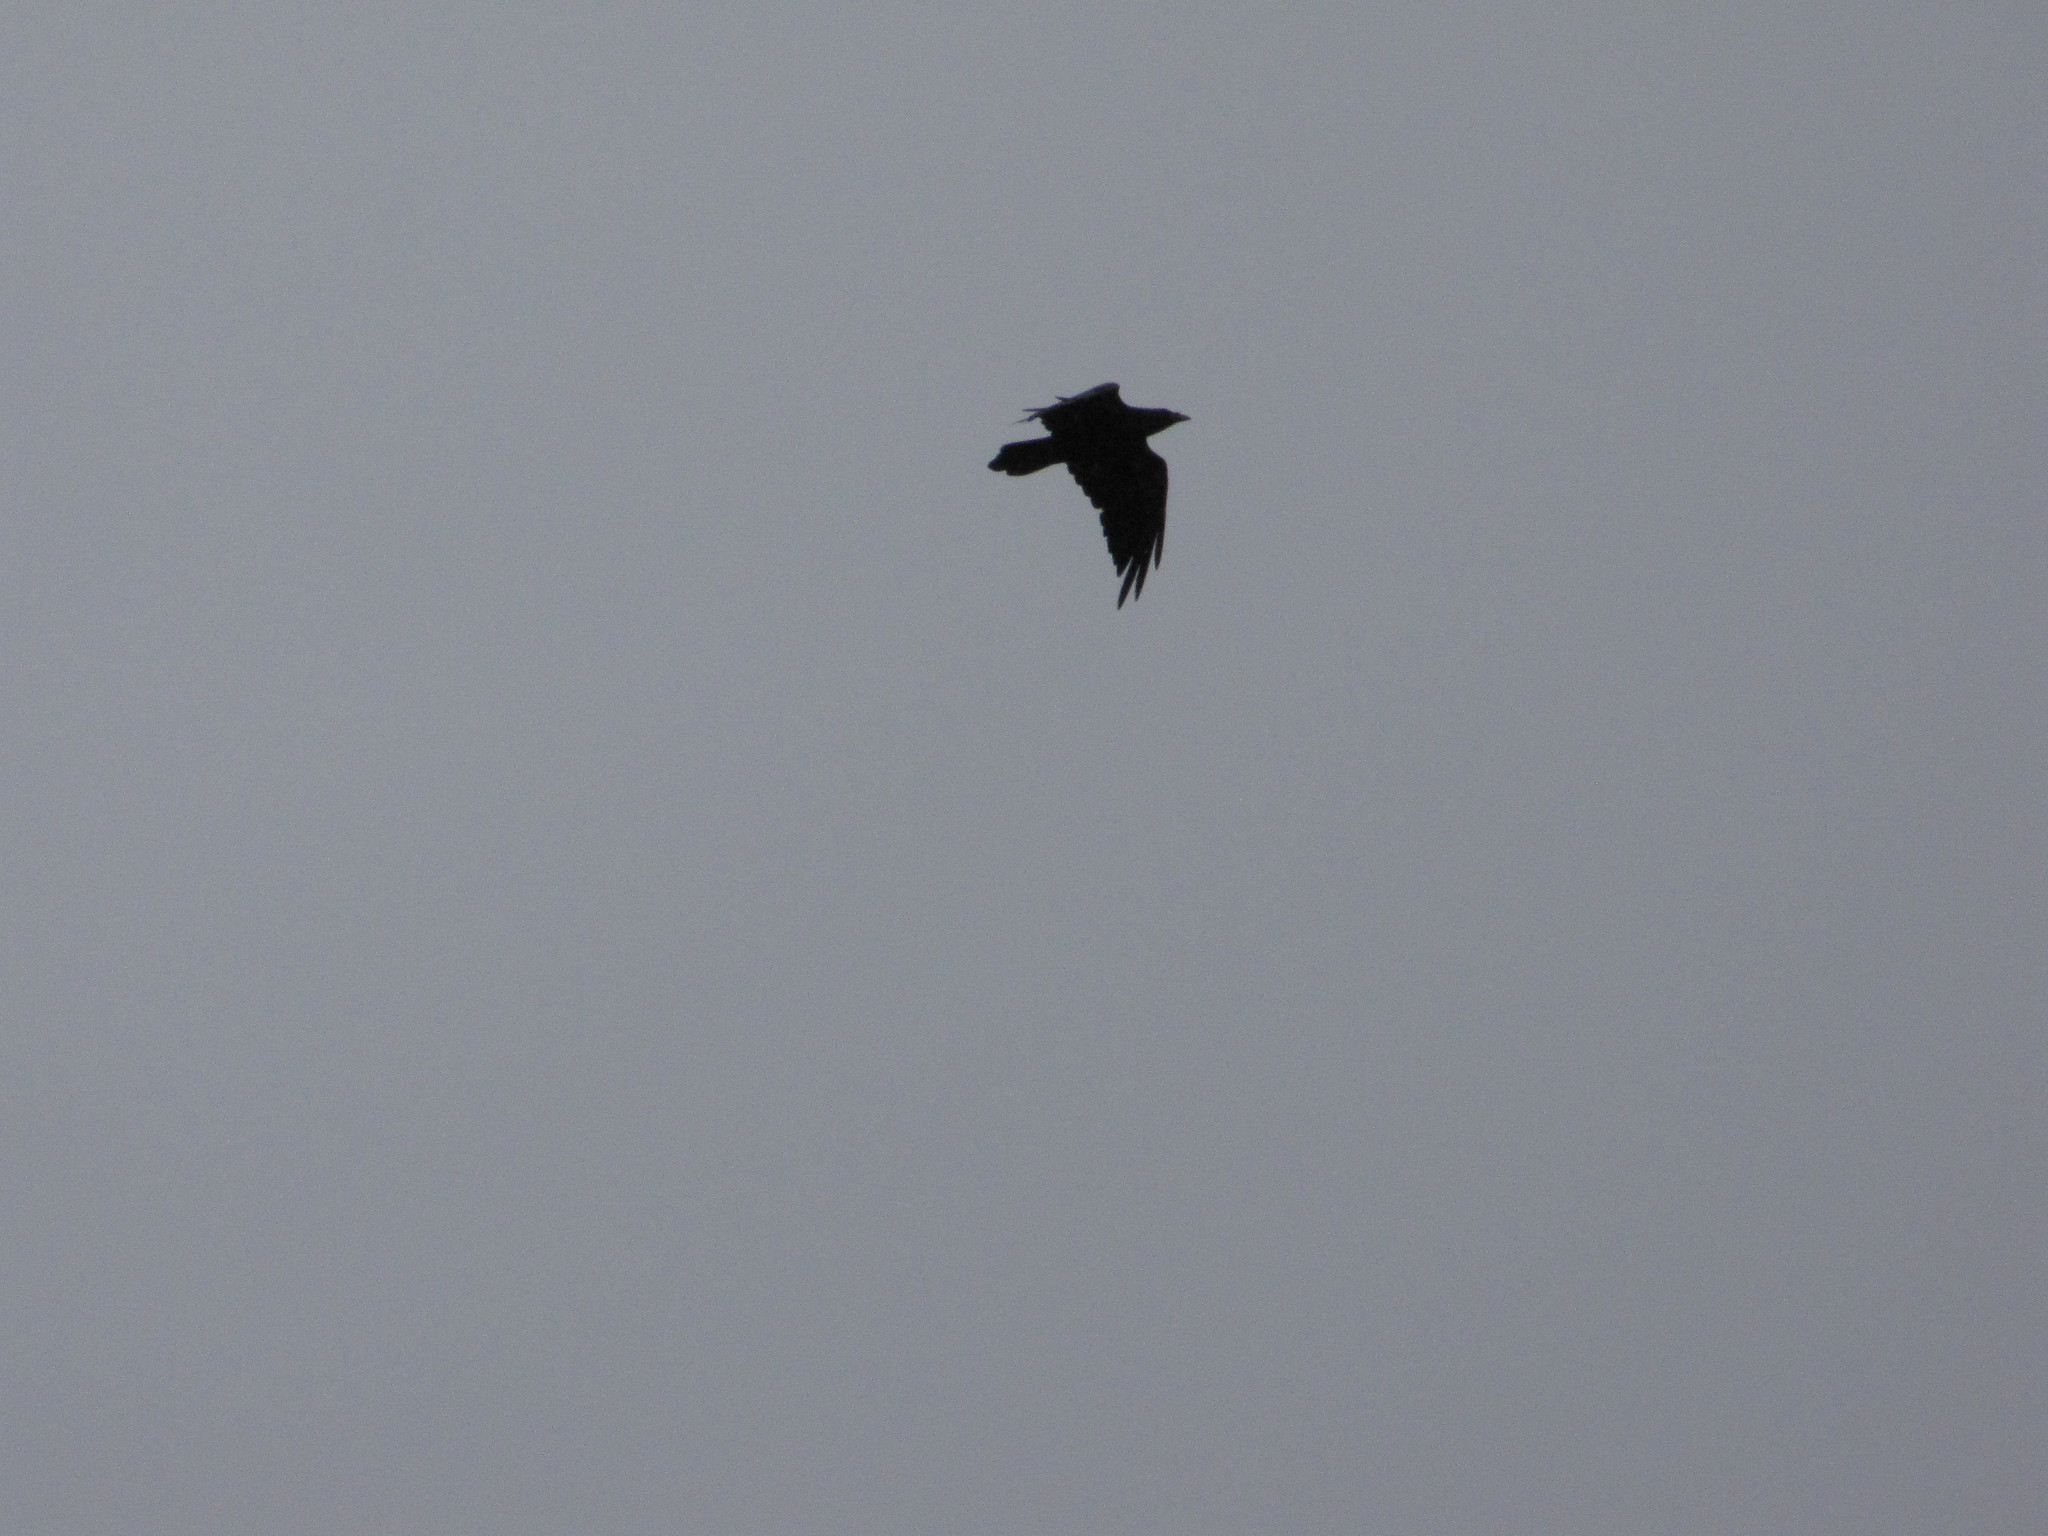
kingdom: Animalia
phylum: Chordata
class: Aves
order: Passeriformes
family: Corvidae
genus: Corvus
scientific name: Corvus corax
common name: Common raven
